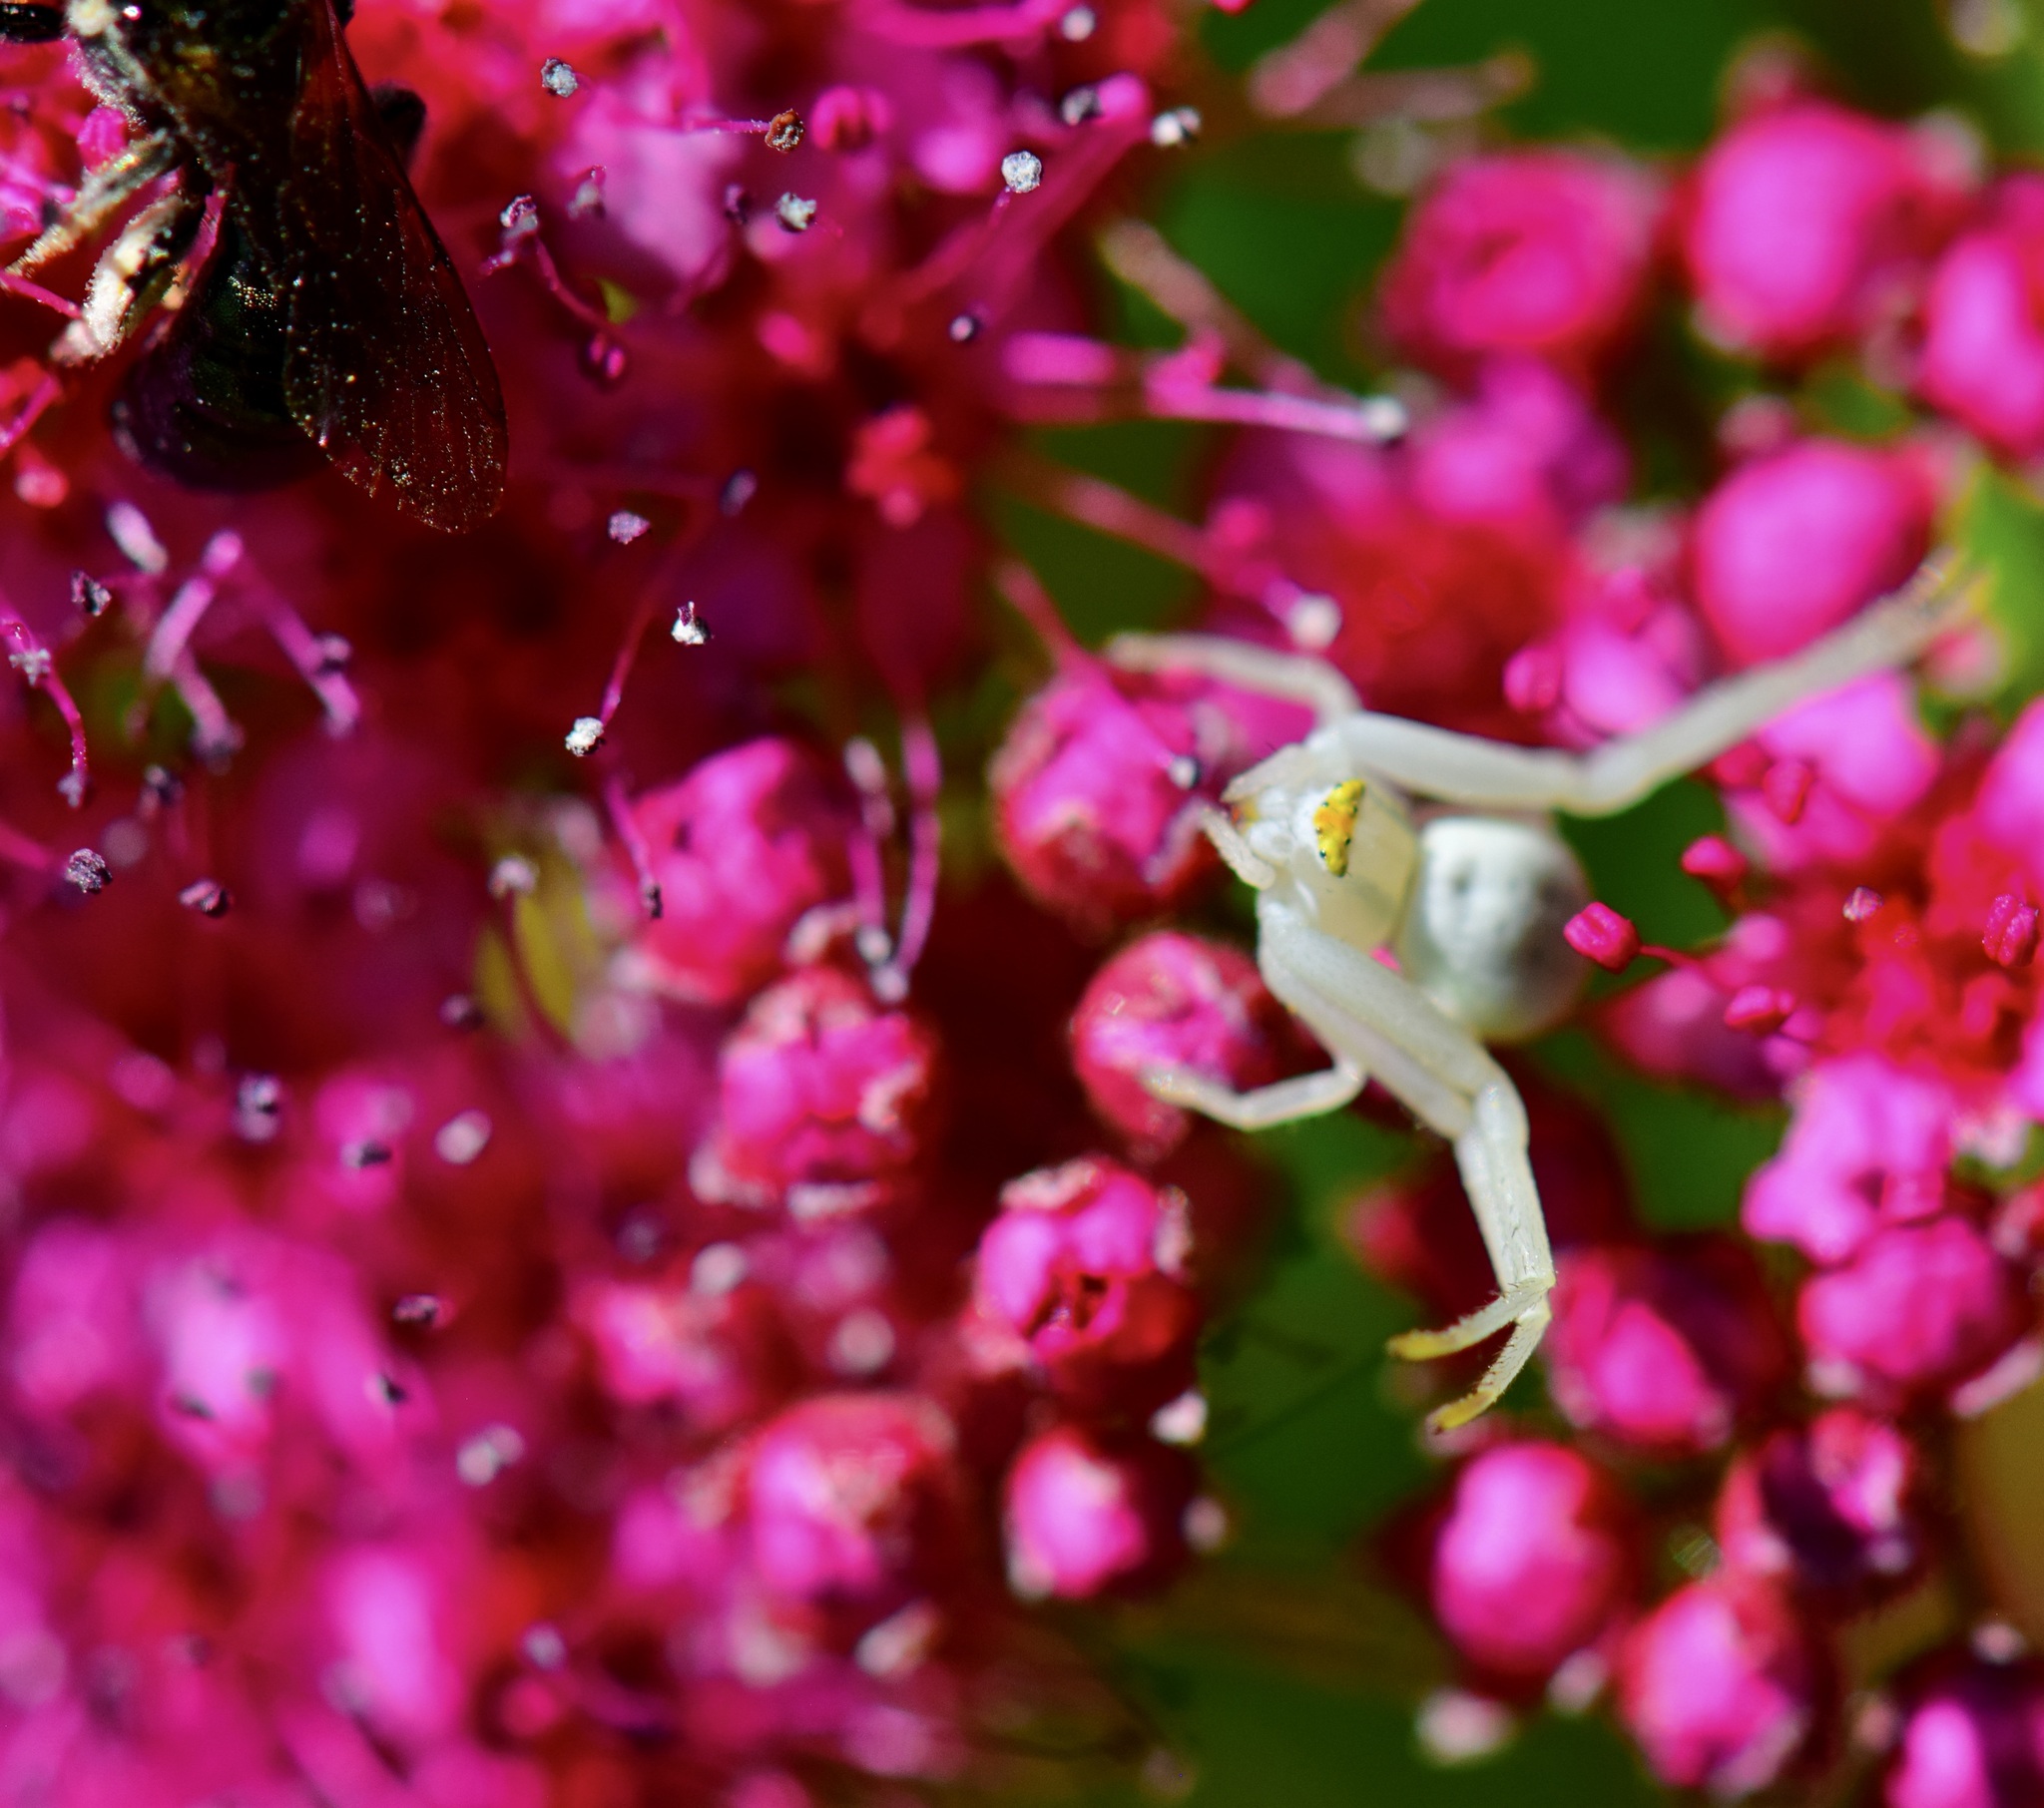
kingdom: Animalia
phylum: Arthropoda
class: Arachnida
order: Araneae
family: Thomisidae
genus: Misumena
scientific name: Misumena vatia
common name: Goldenrod crab spider
